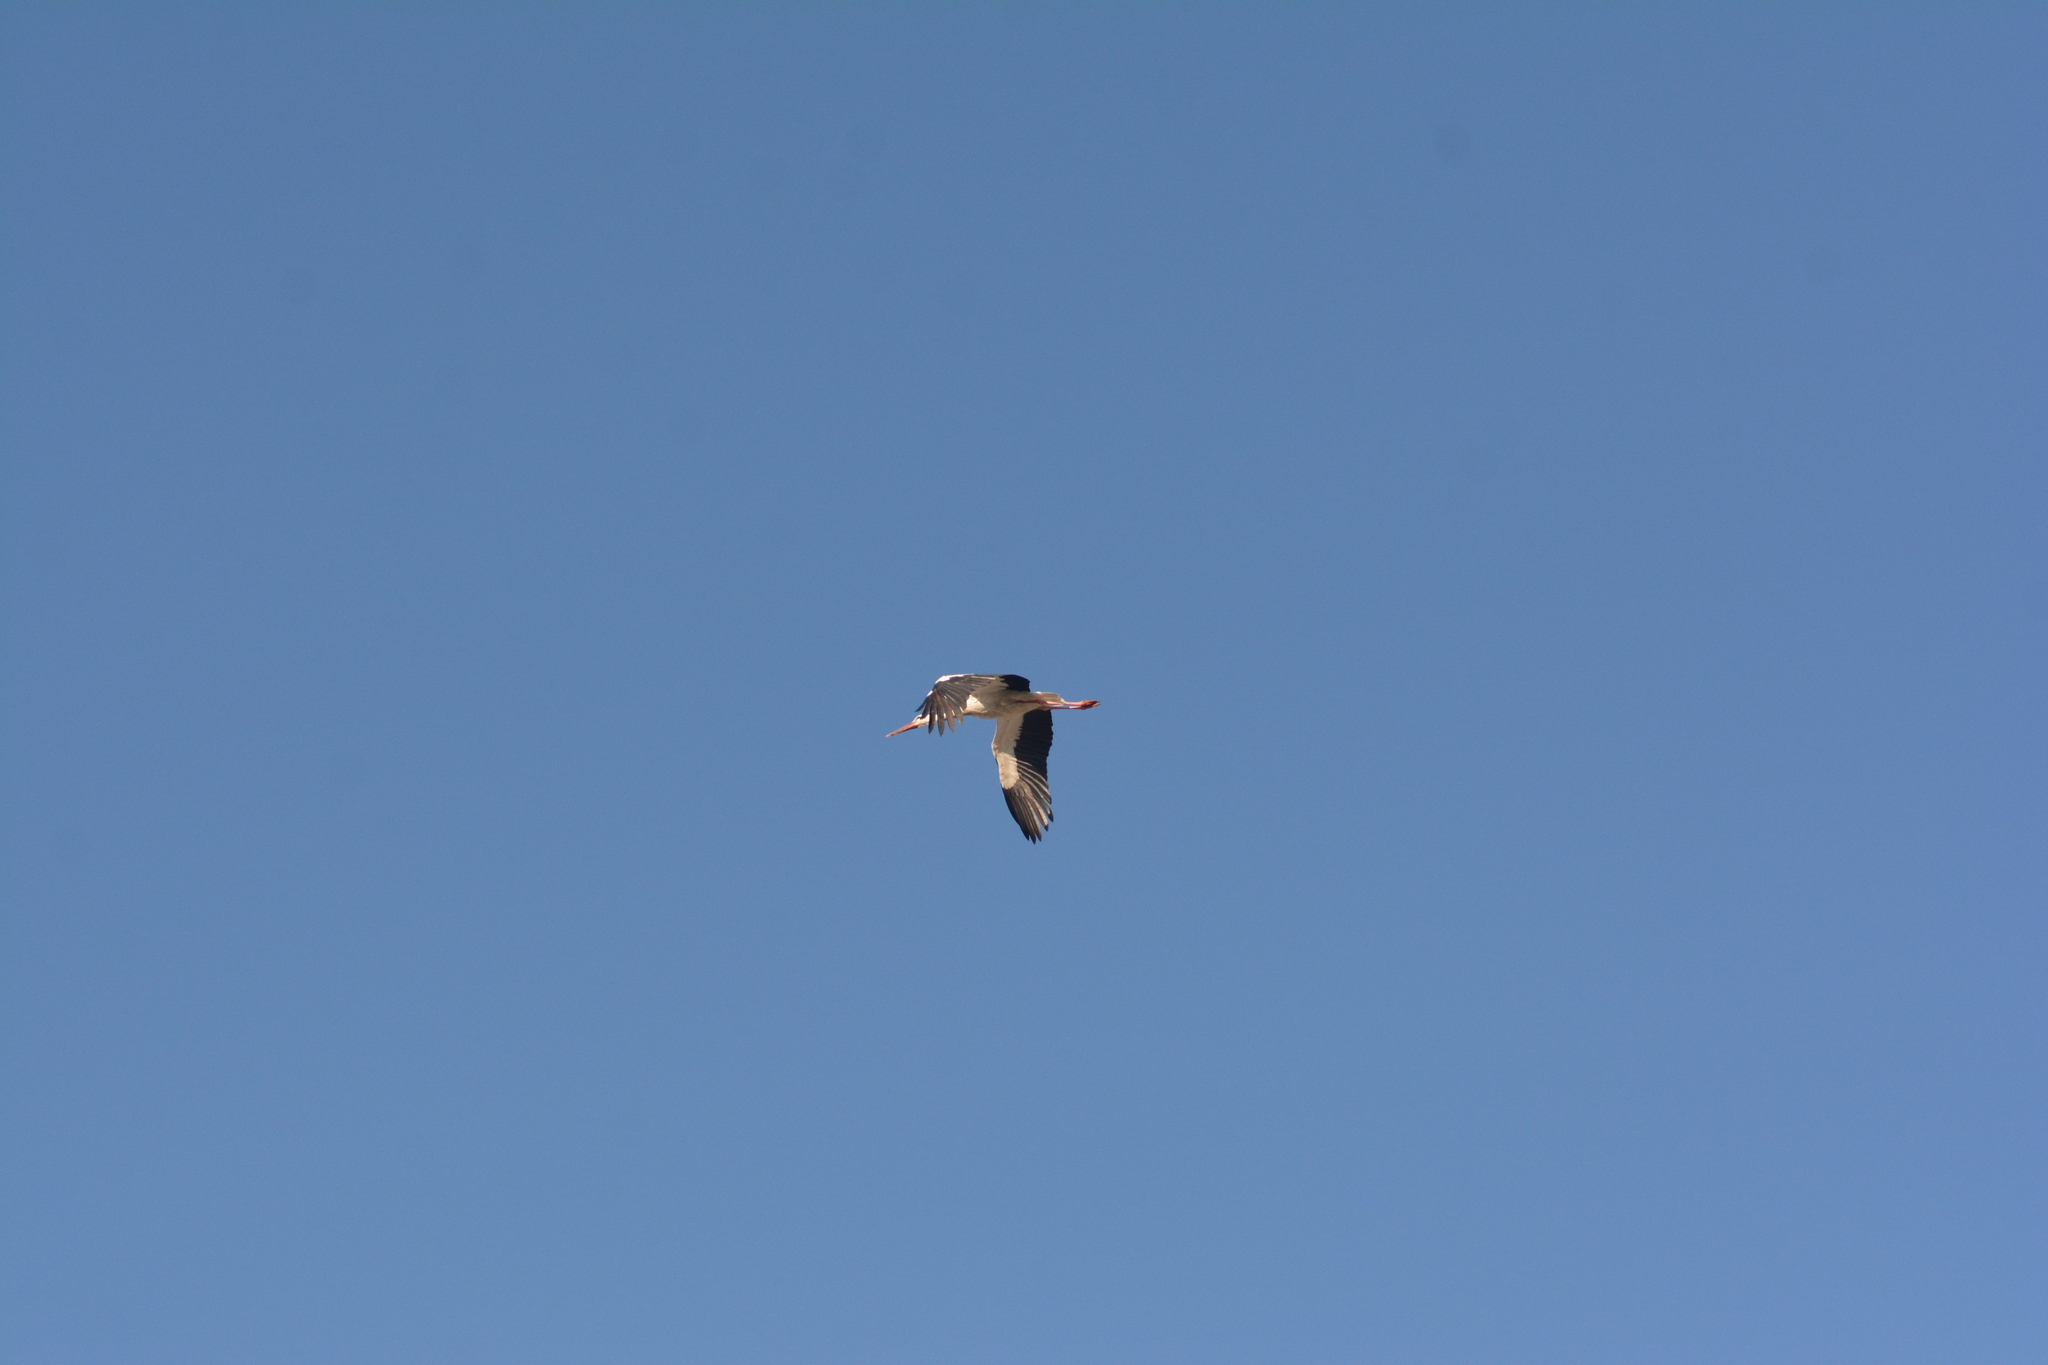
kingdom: Animalia
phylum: Chordata
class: Aves
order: Ciconiiformes
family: Ciconiidae
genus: Ciconia
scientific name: Ciconia ciconia
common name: White stork
